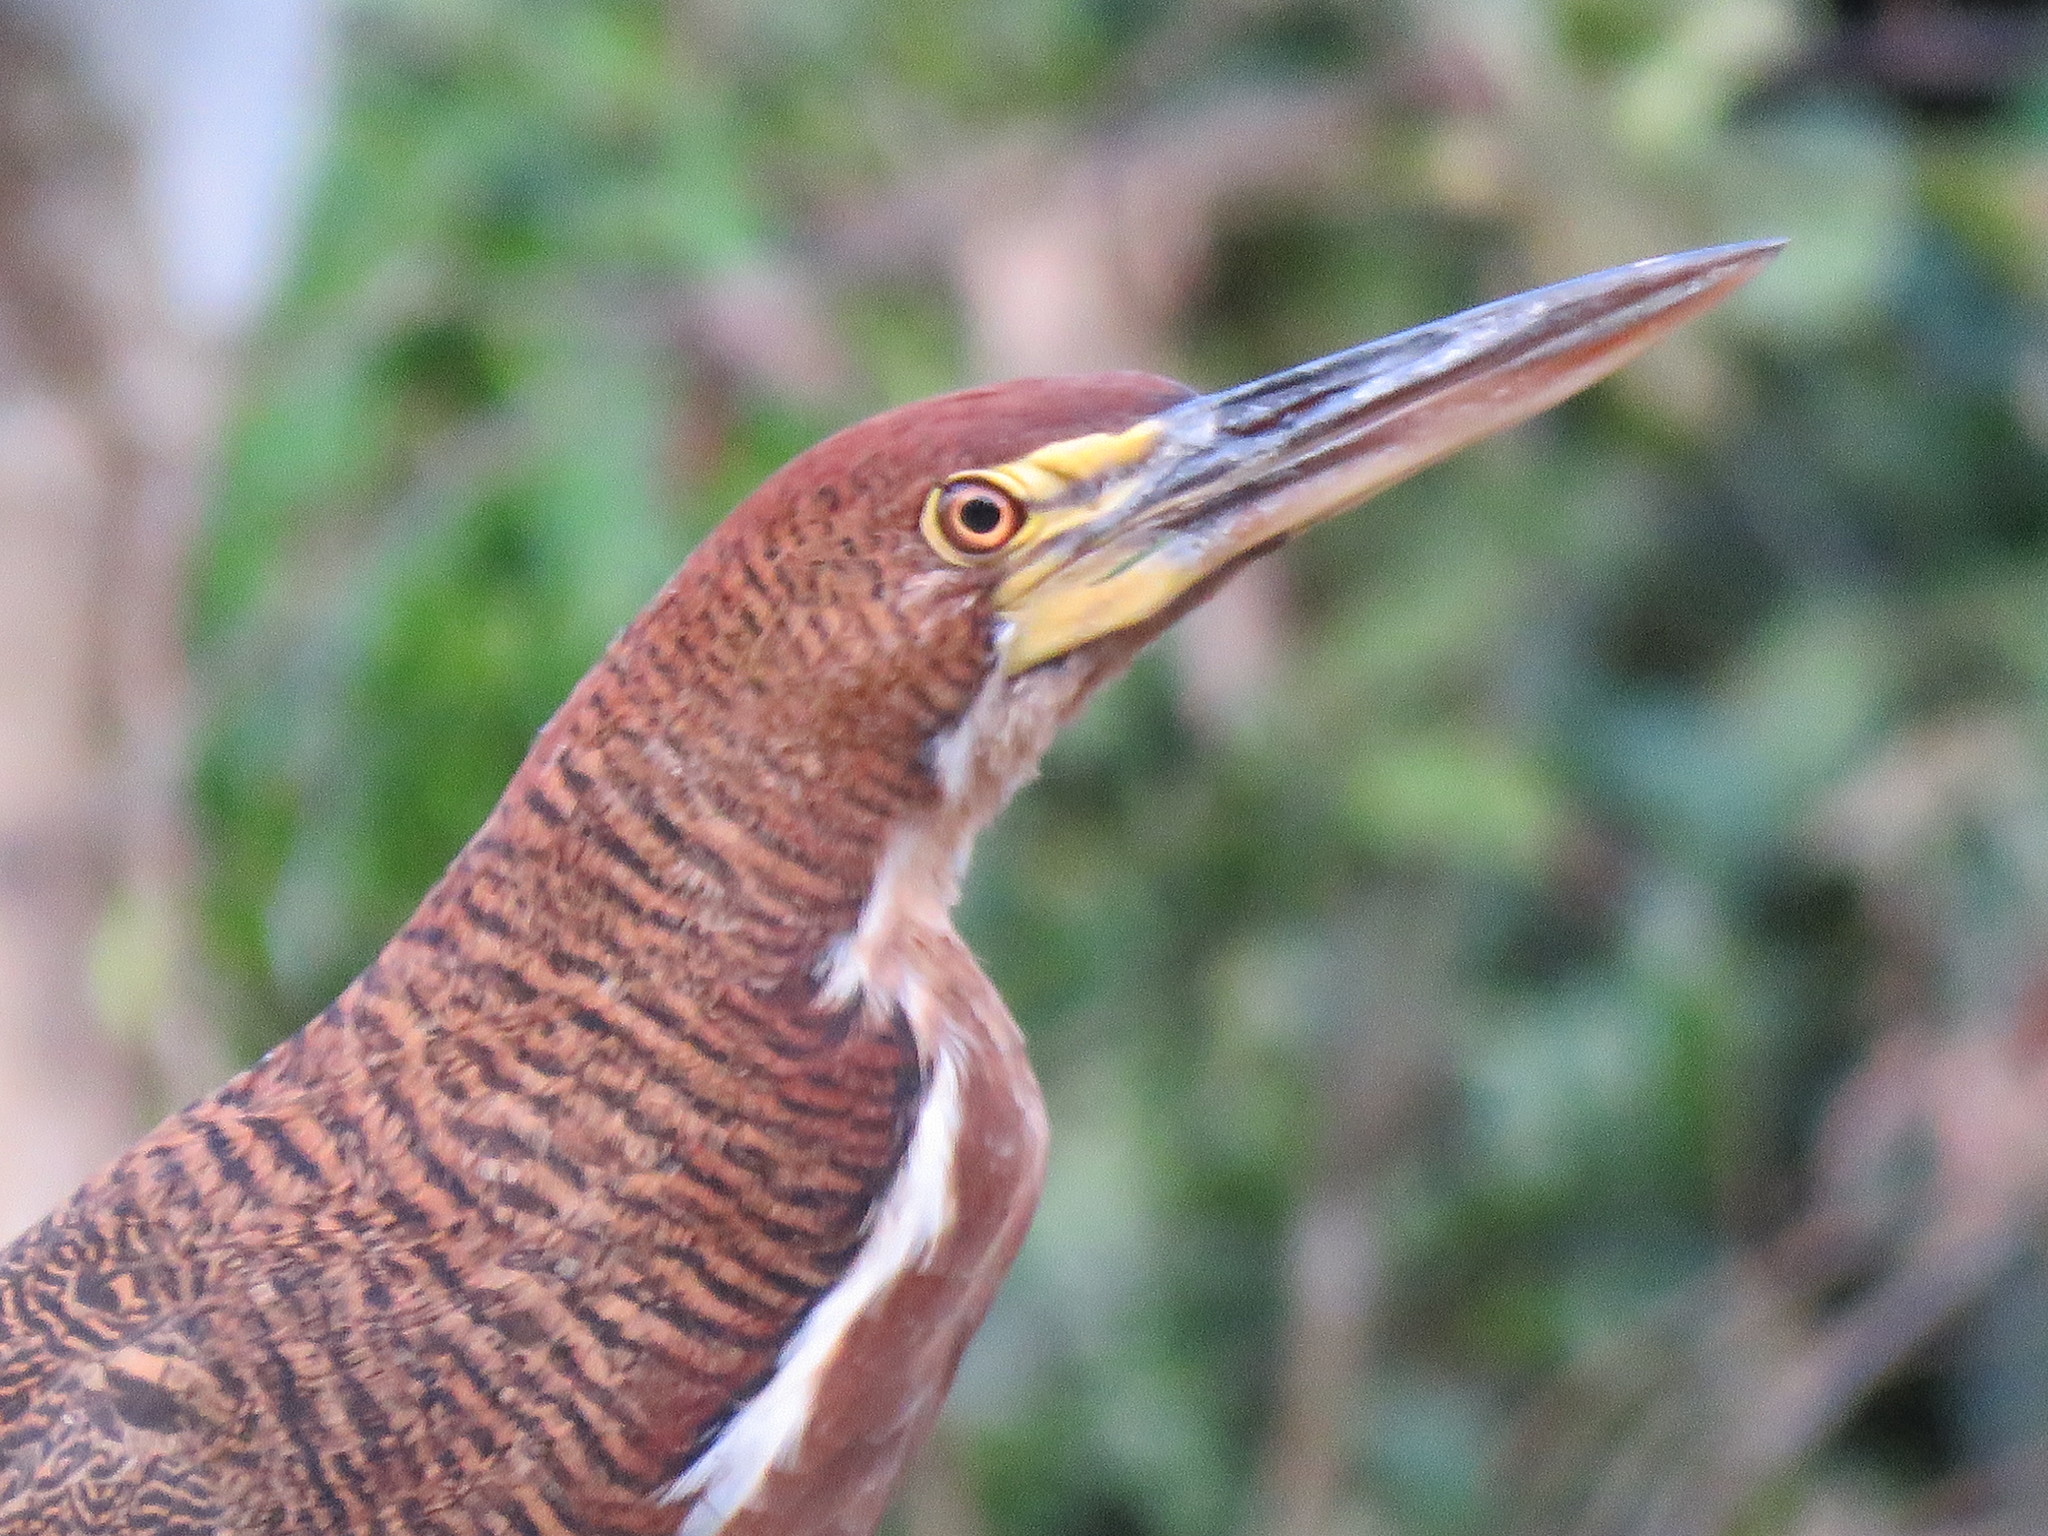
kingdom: Animalia
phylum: Chordata
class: Aves
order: Pelecaniformes
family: Ardeidae
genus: Tigrisoma
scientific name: Tigrisoma lineatum
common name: Rufescent tiger-heron
